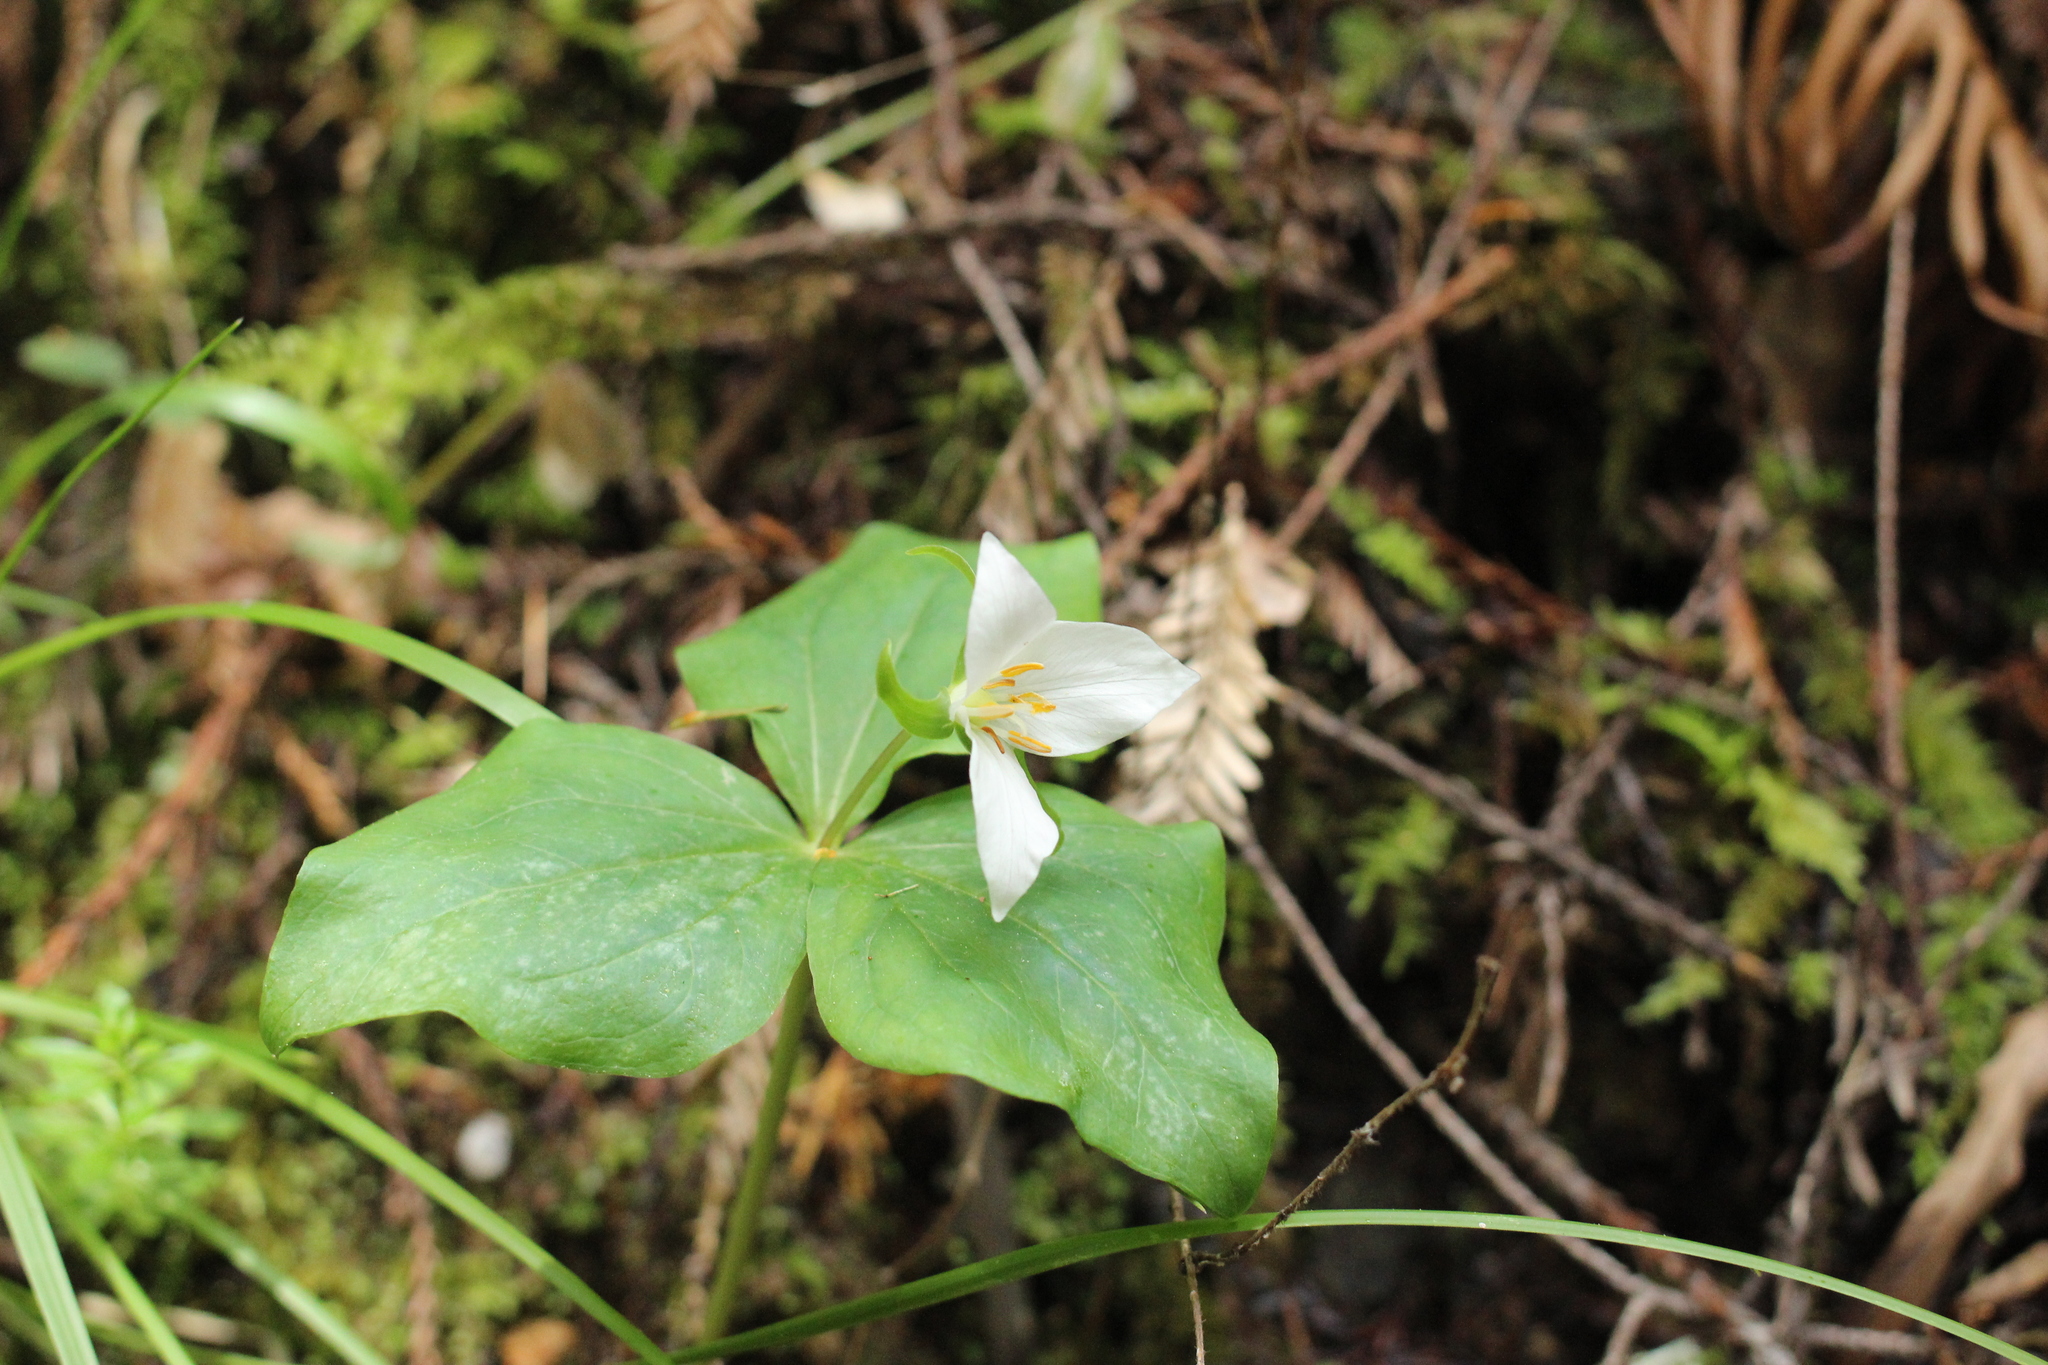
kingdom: Plantae
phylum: Tracheophyta
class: Liliopsida
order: Liliales
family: Melanthiaceae
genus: Trillium
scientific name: Trillium ovatum
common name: Pacific trillium
